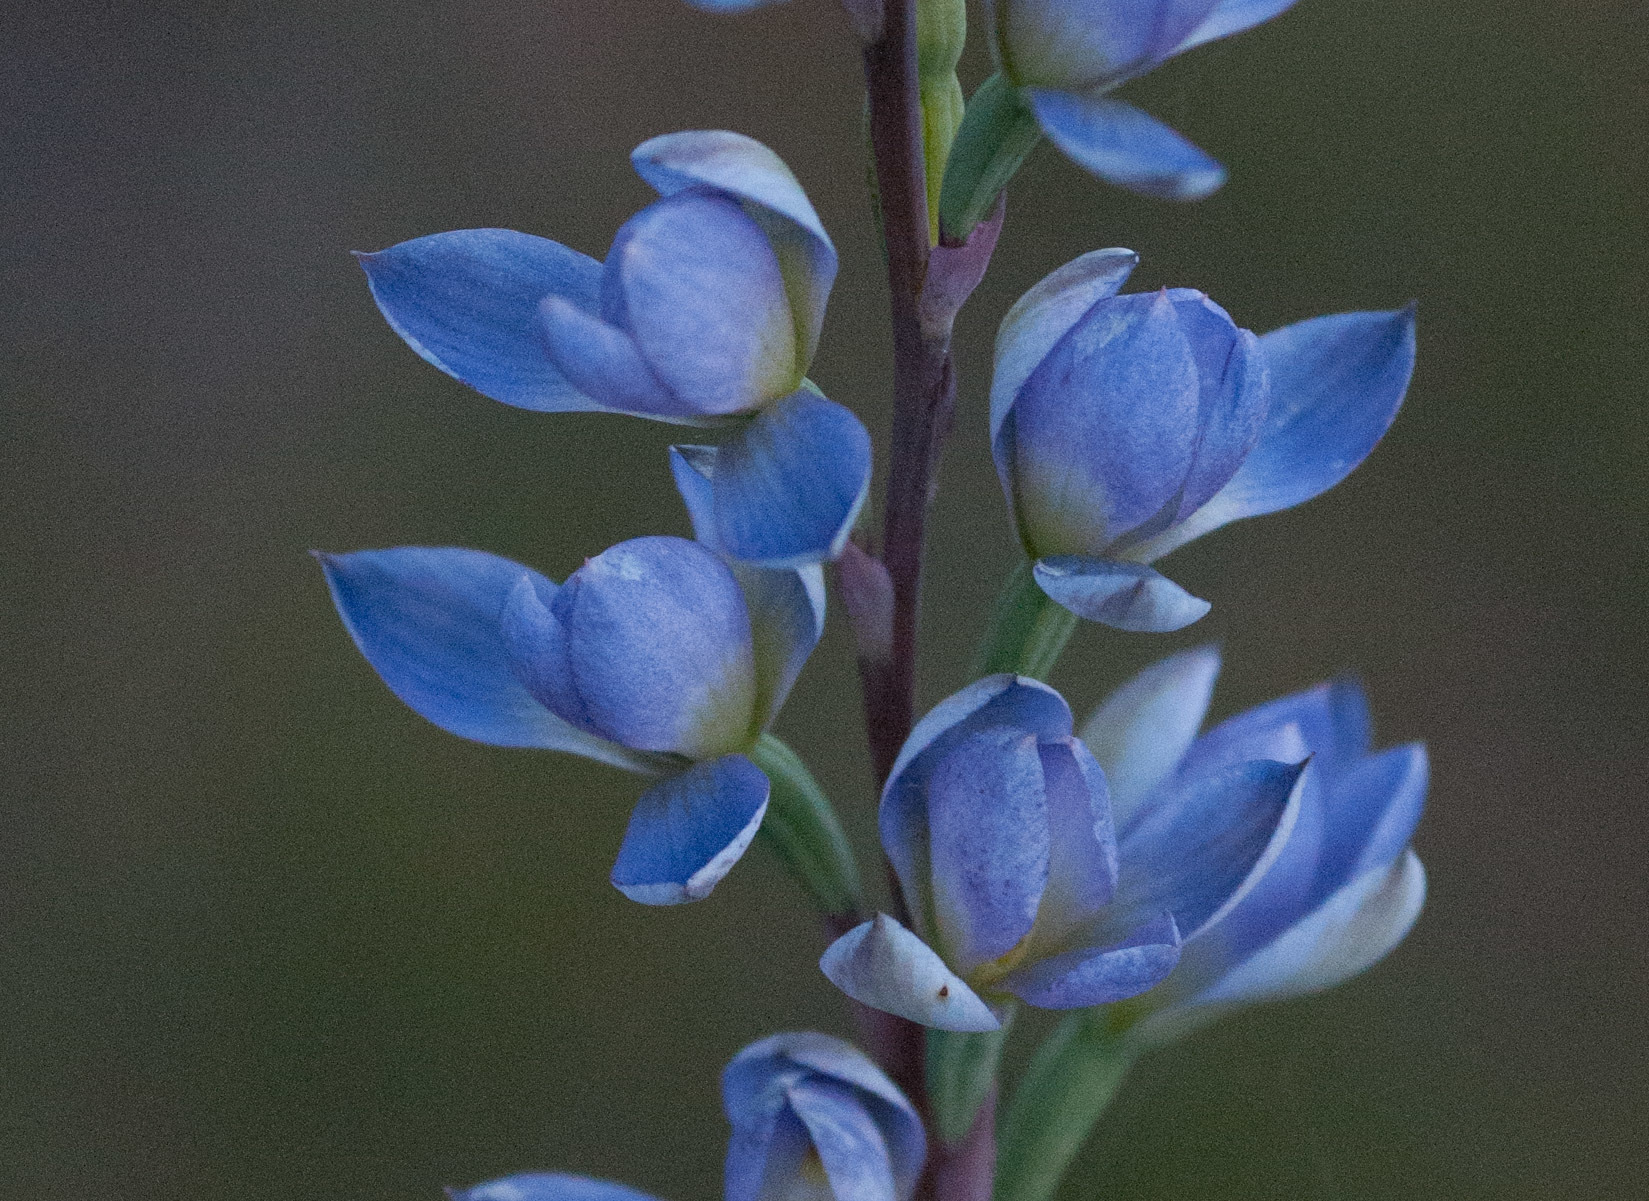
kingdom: Plantae
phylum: Tracheophyta
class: Liliopsida
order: Asparagales
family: Orchidaceae
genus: Thelymitra
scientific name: Thelymitra
